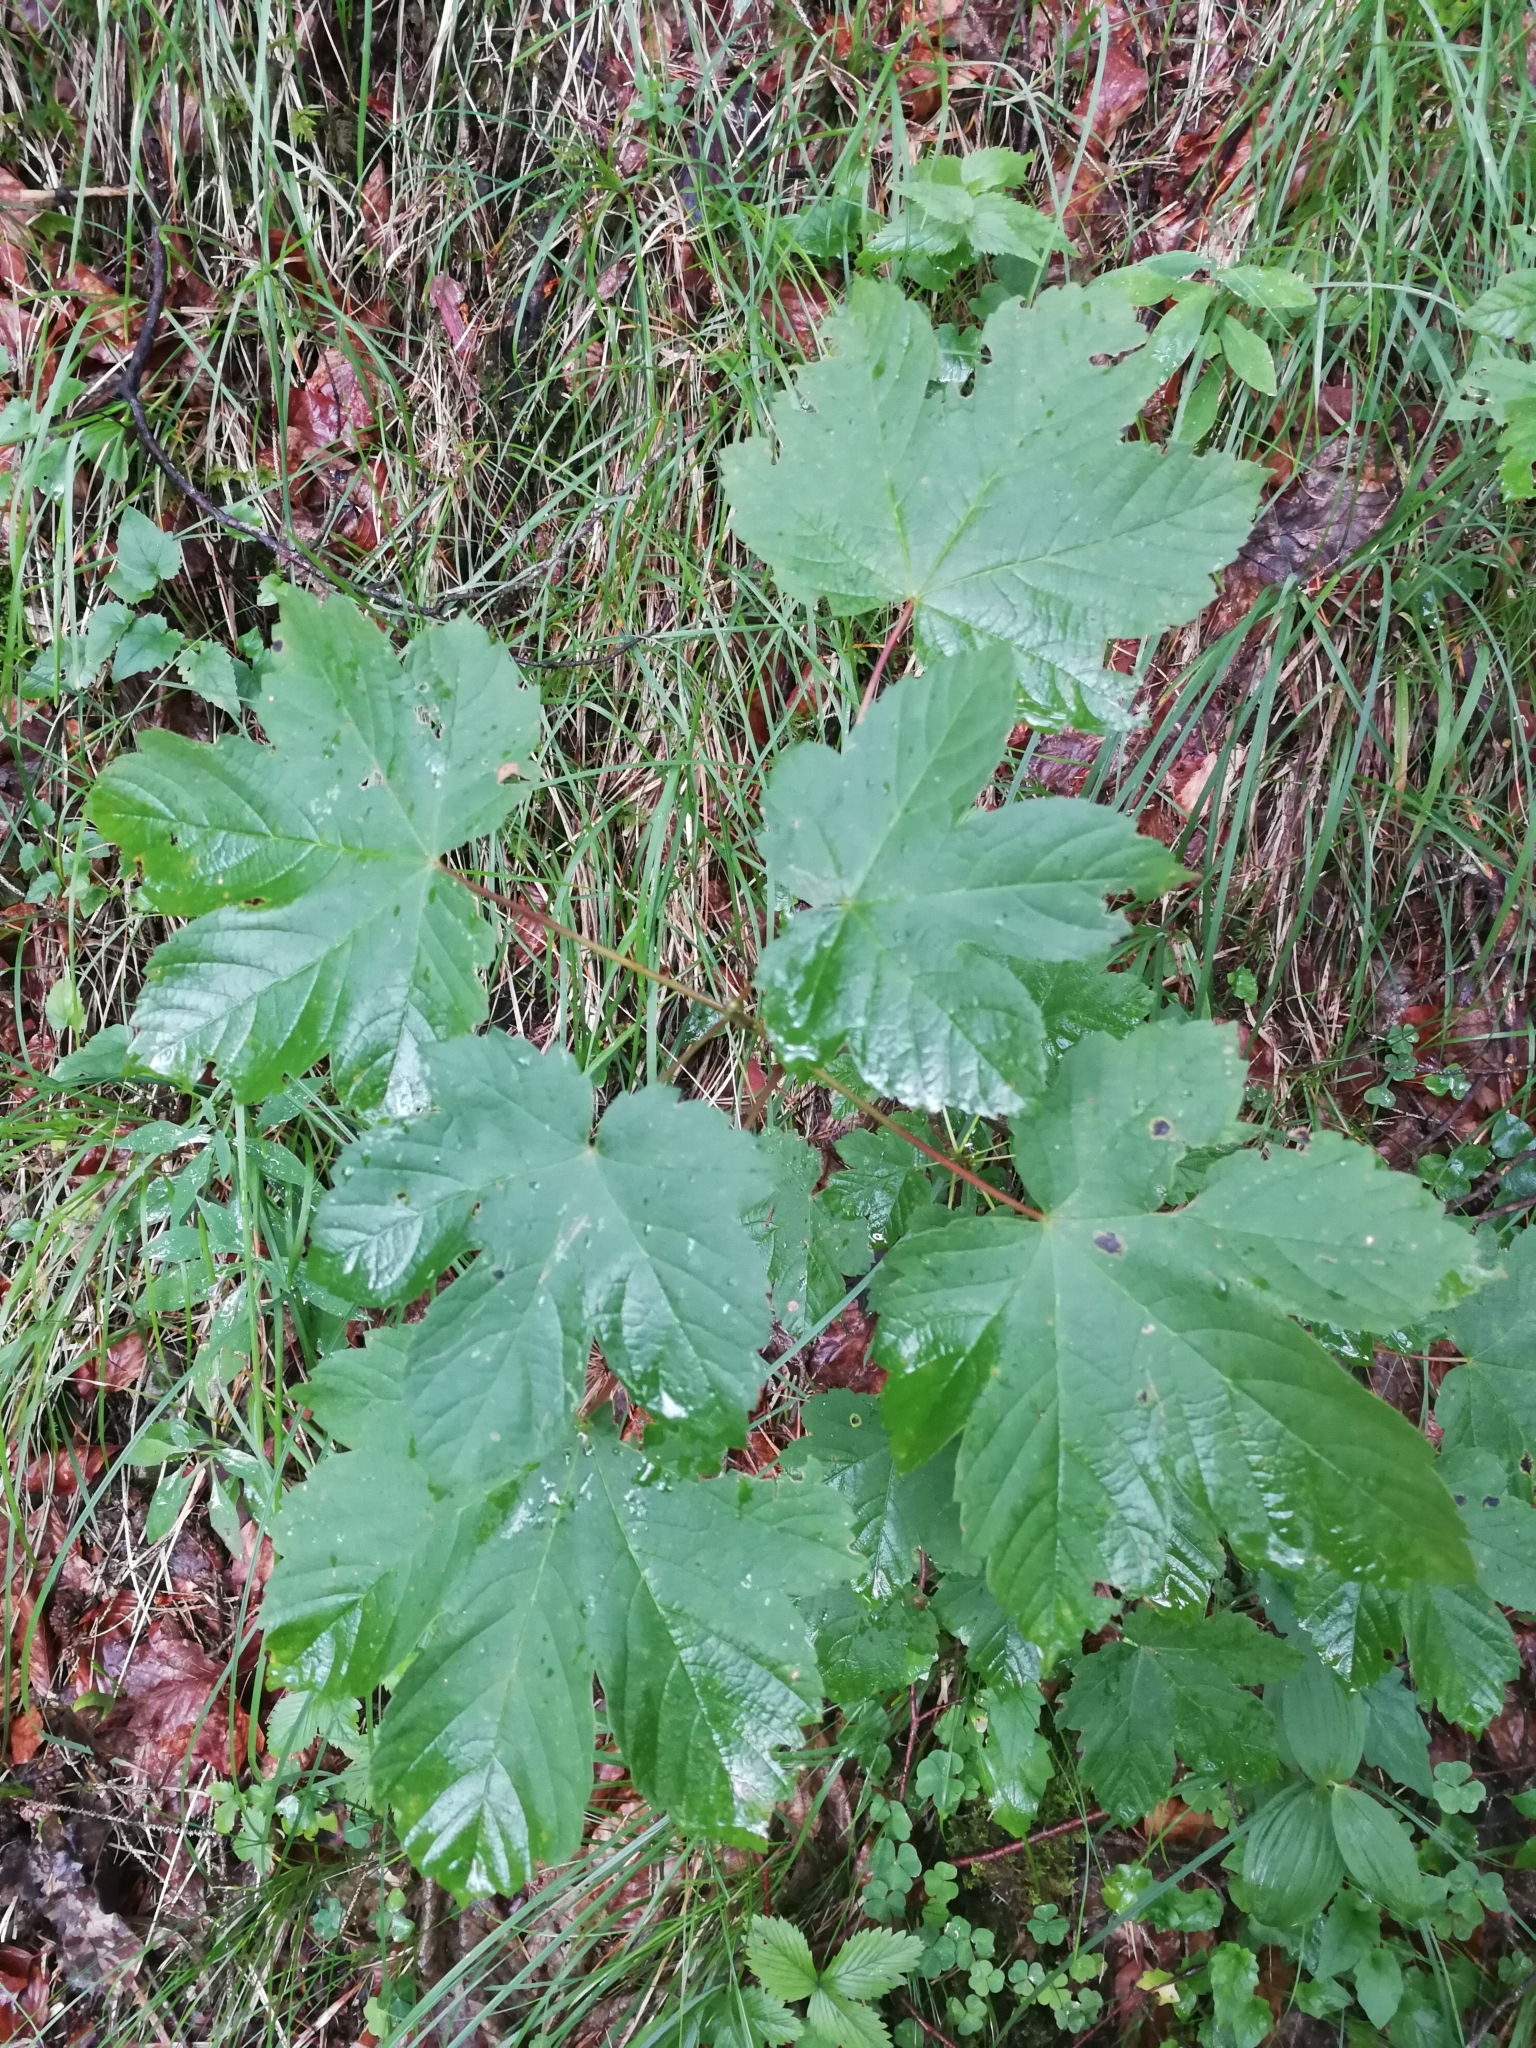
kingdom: Plantae
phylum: Tracheophyta
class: Magnoliopsida
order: Sapindales
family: Sapindaceae
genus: Acer
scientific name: Acer pseudoplatanus
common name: Sycamore
